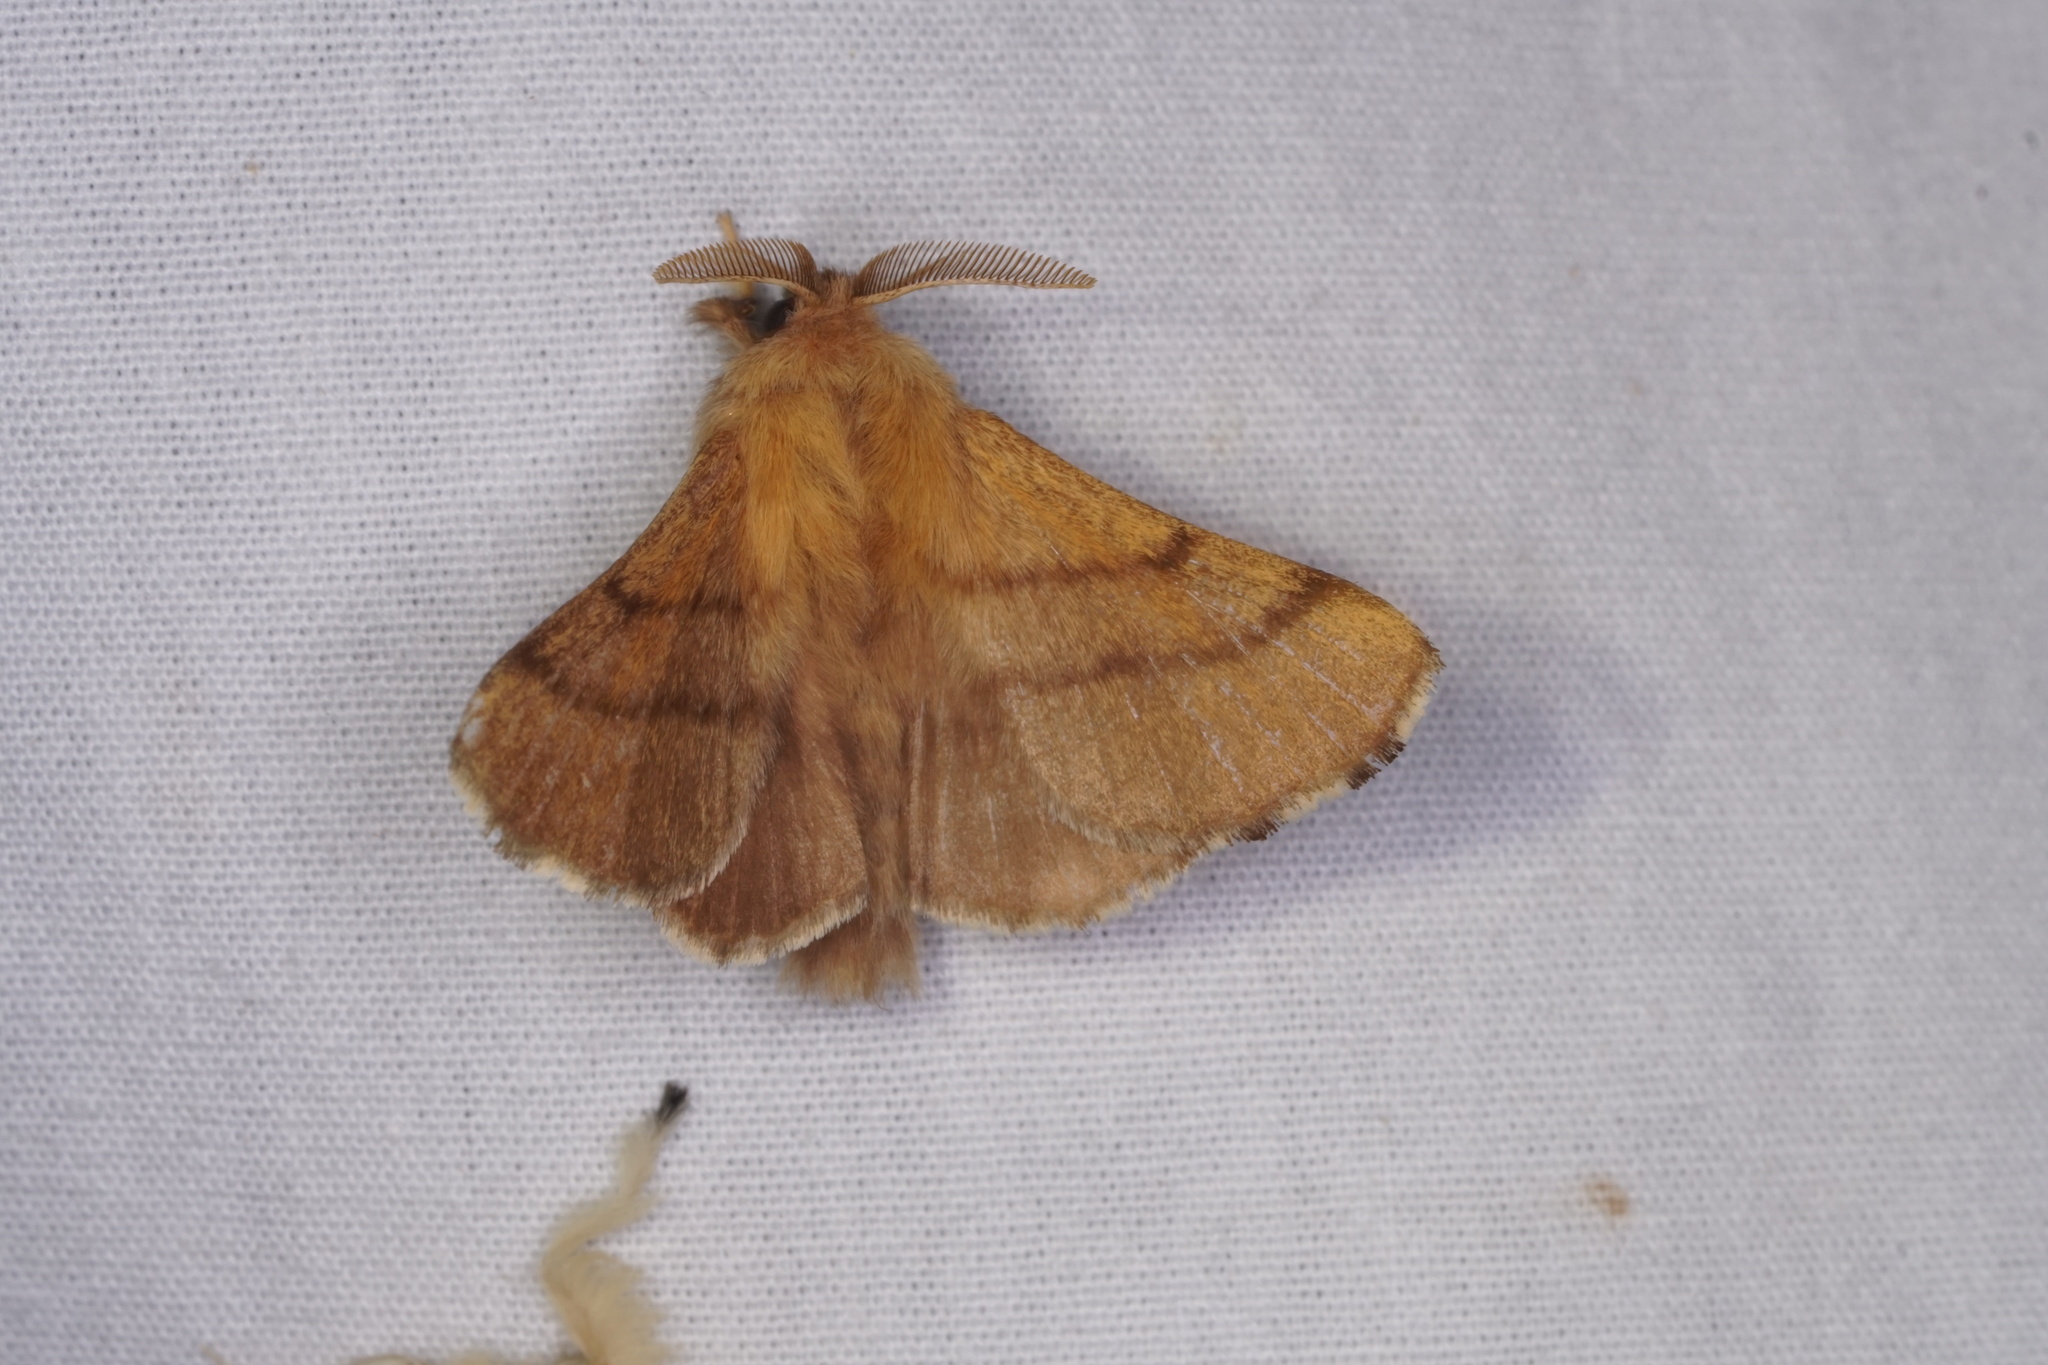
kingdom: Animalia
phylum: Arthropoda
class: Insecta
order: Lepidoptera
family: Lasiocampidae
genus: Malacosoma
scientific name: Malacosoma disstria
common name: Forest tent caterpillar
